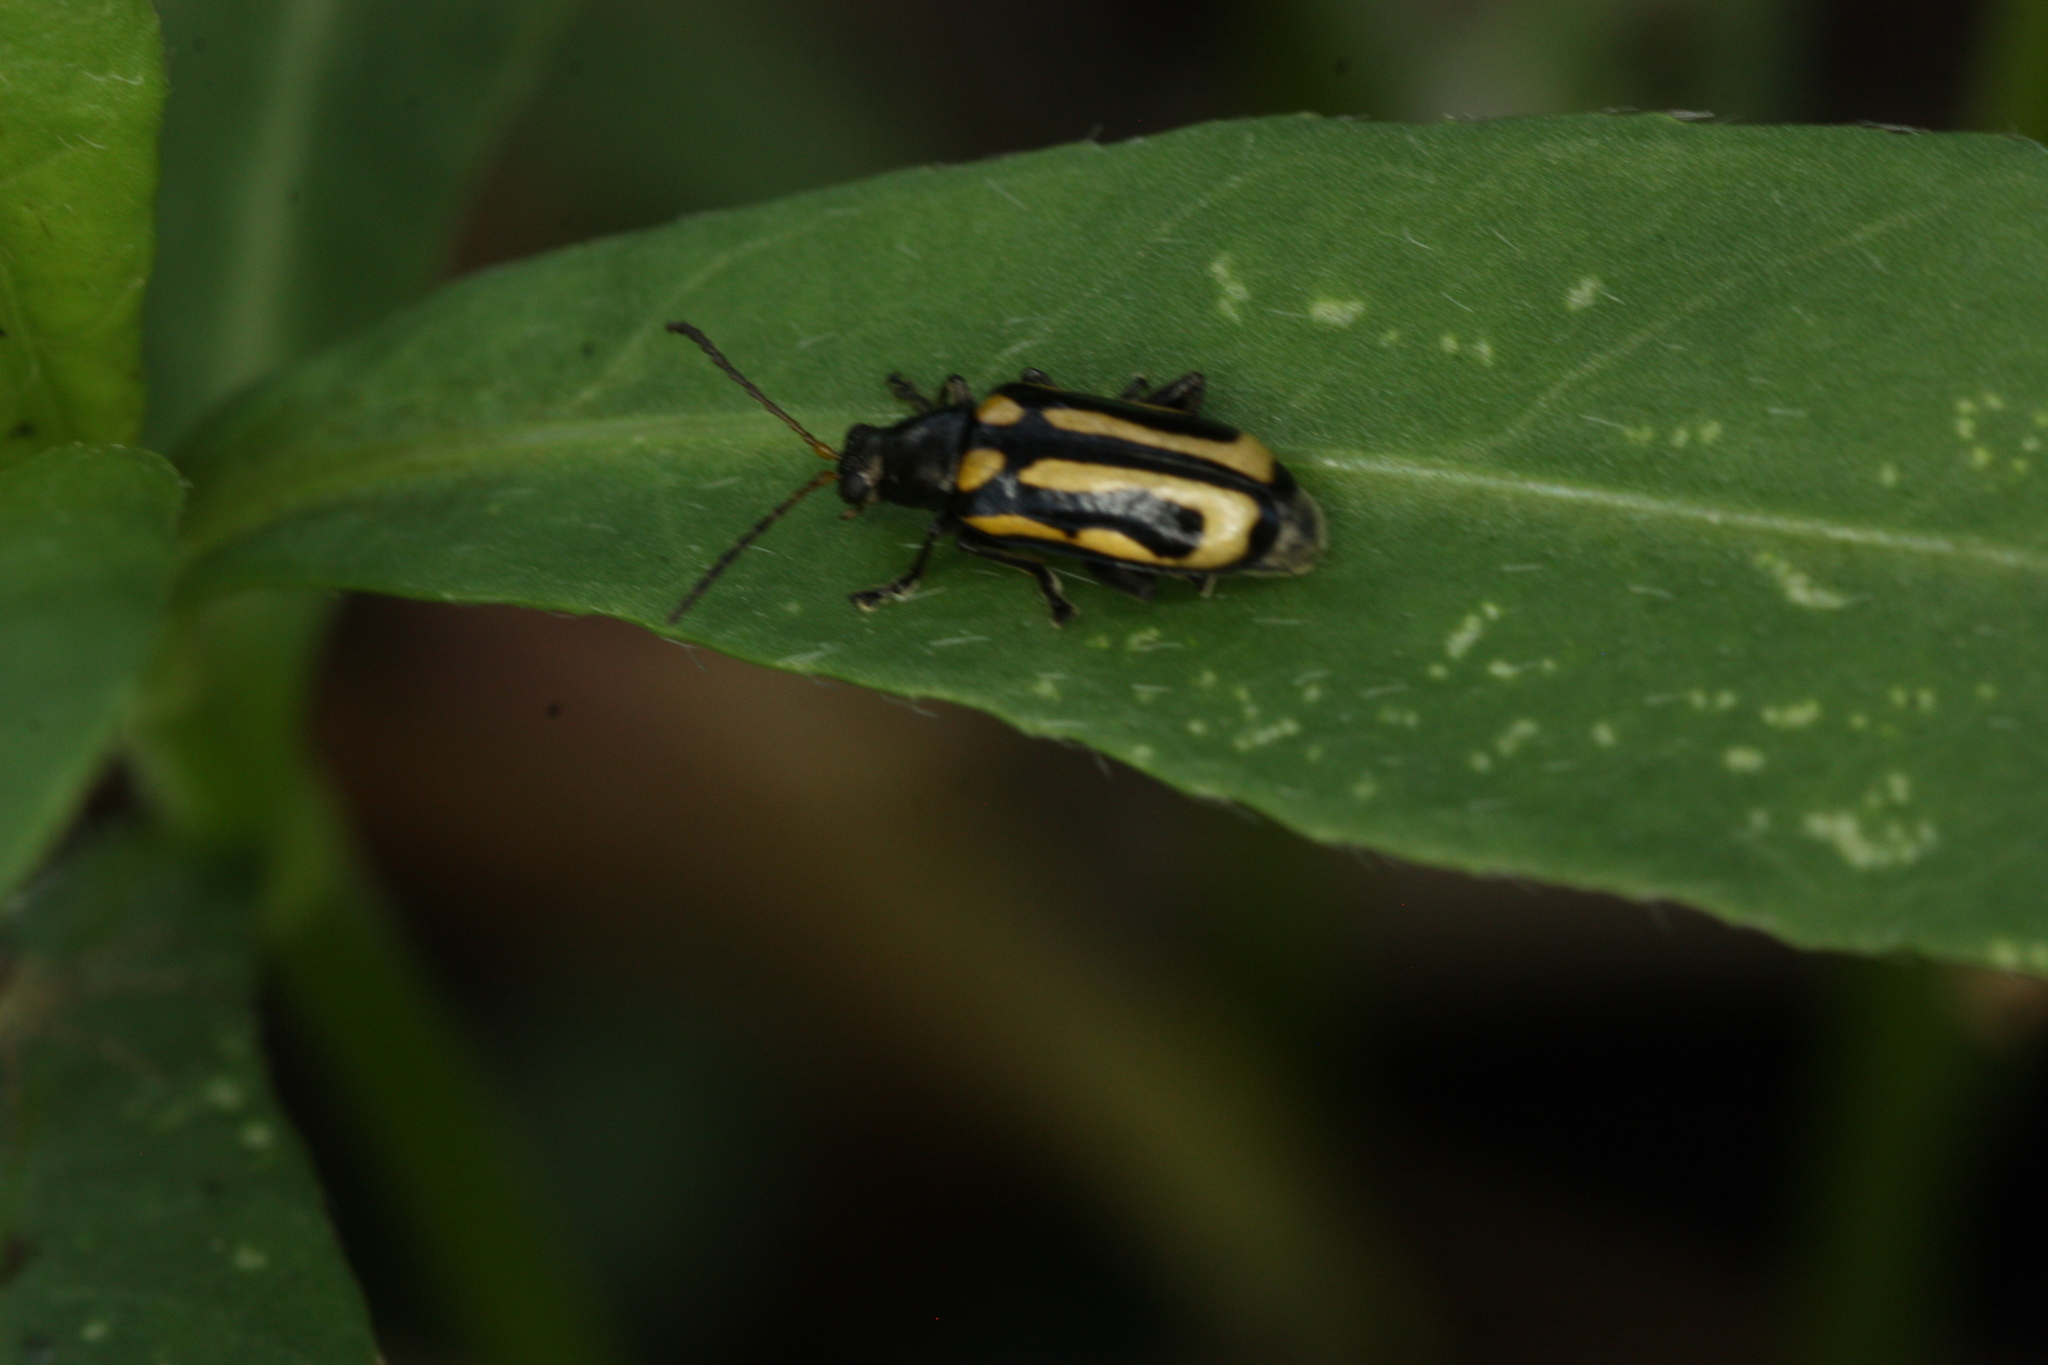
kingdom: Animalia
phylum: Arthropoda
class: Insecta
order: Coleoptera
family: Chrysomelidae
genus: Agasicles
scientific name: Agasicles hygrophila
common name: Alligatorweed flea beetle
